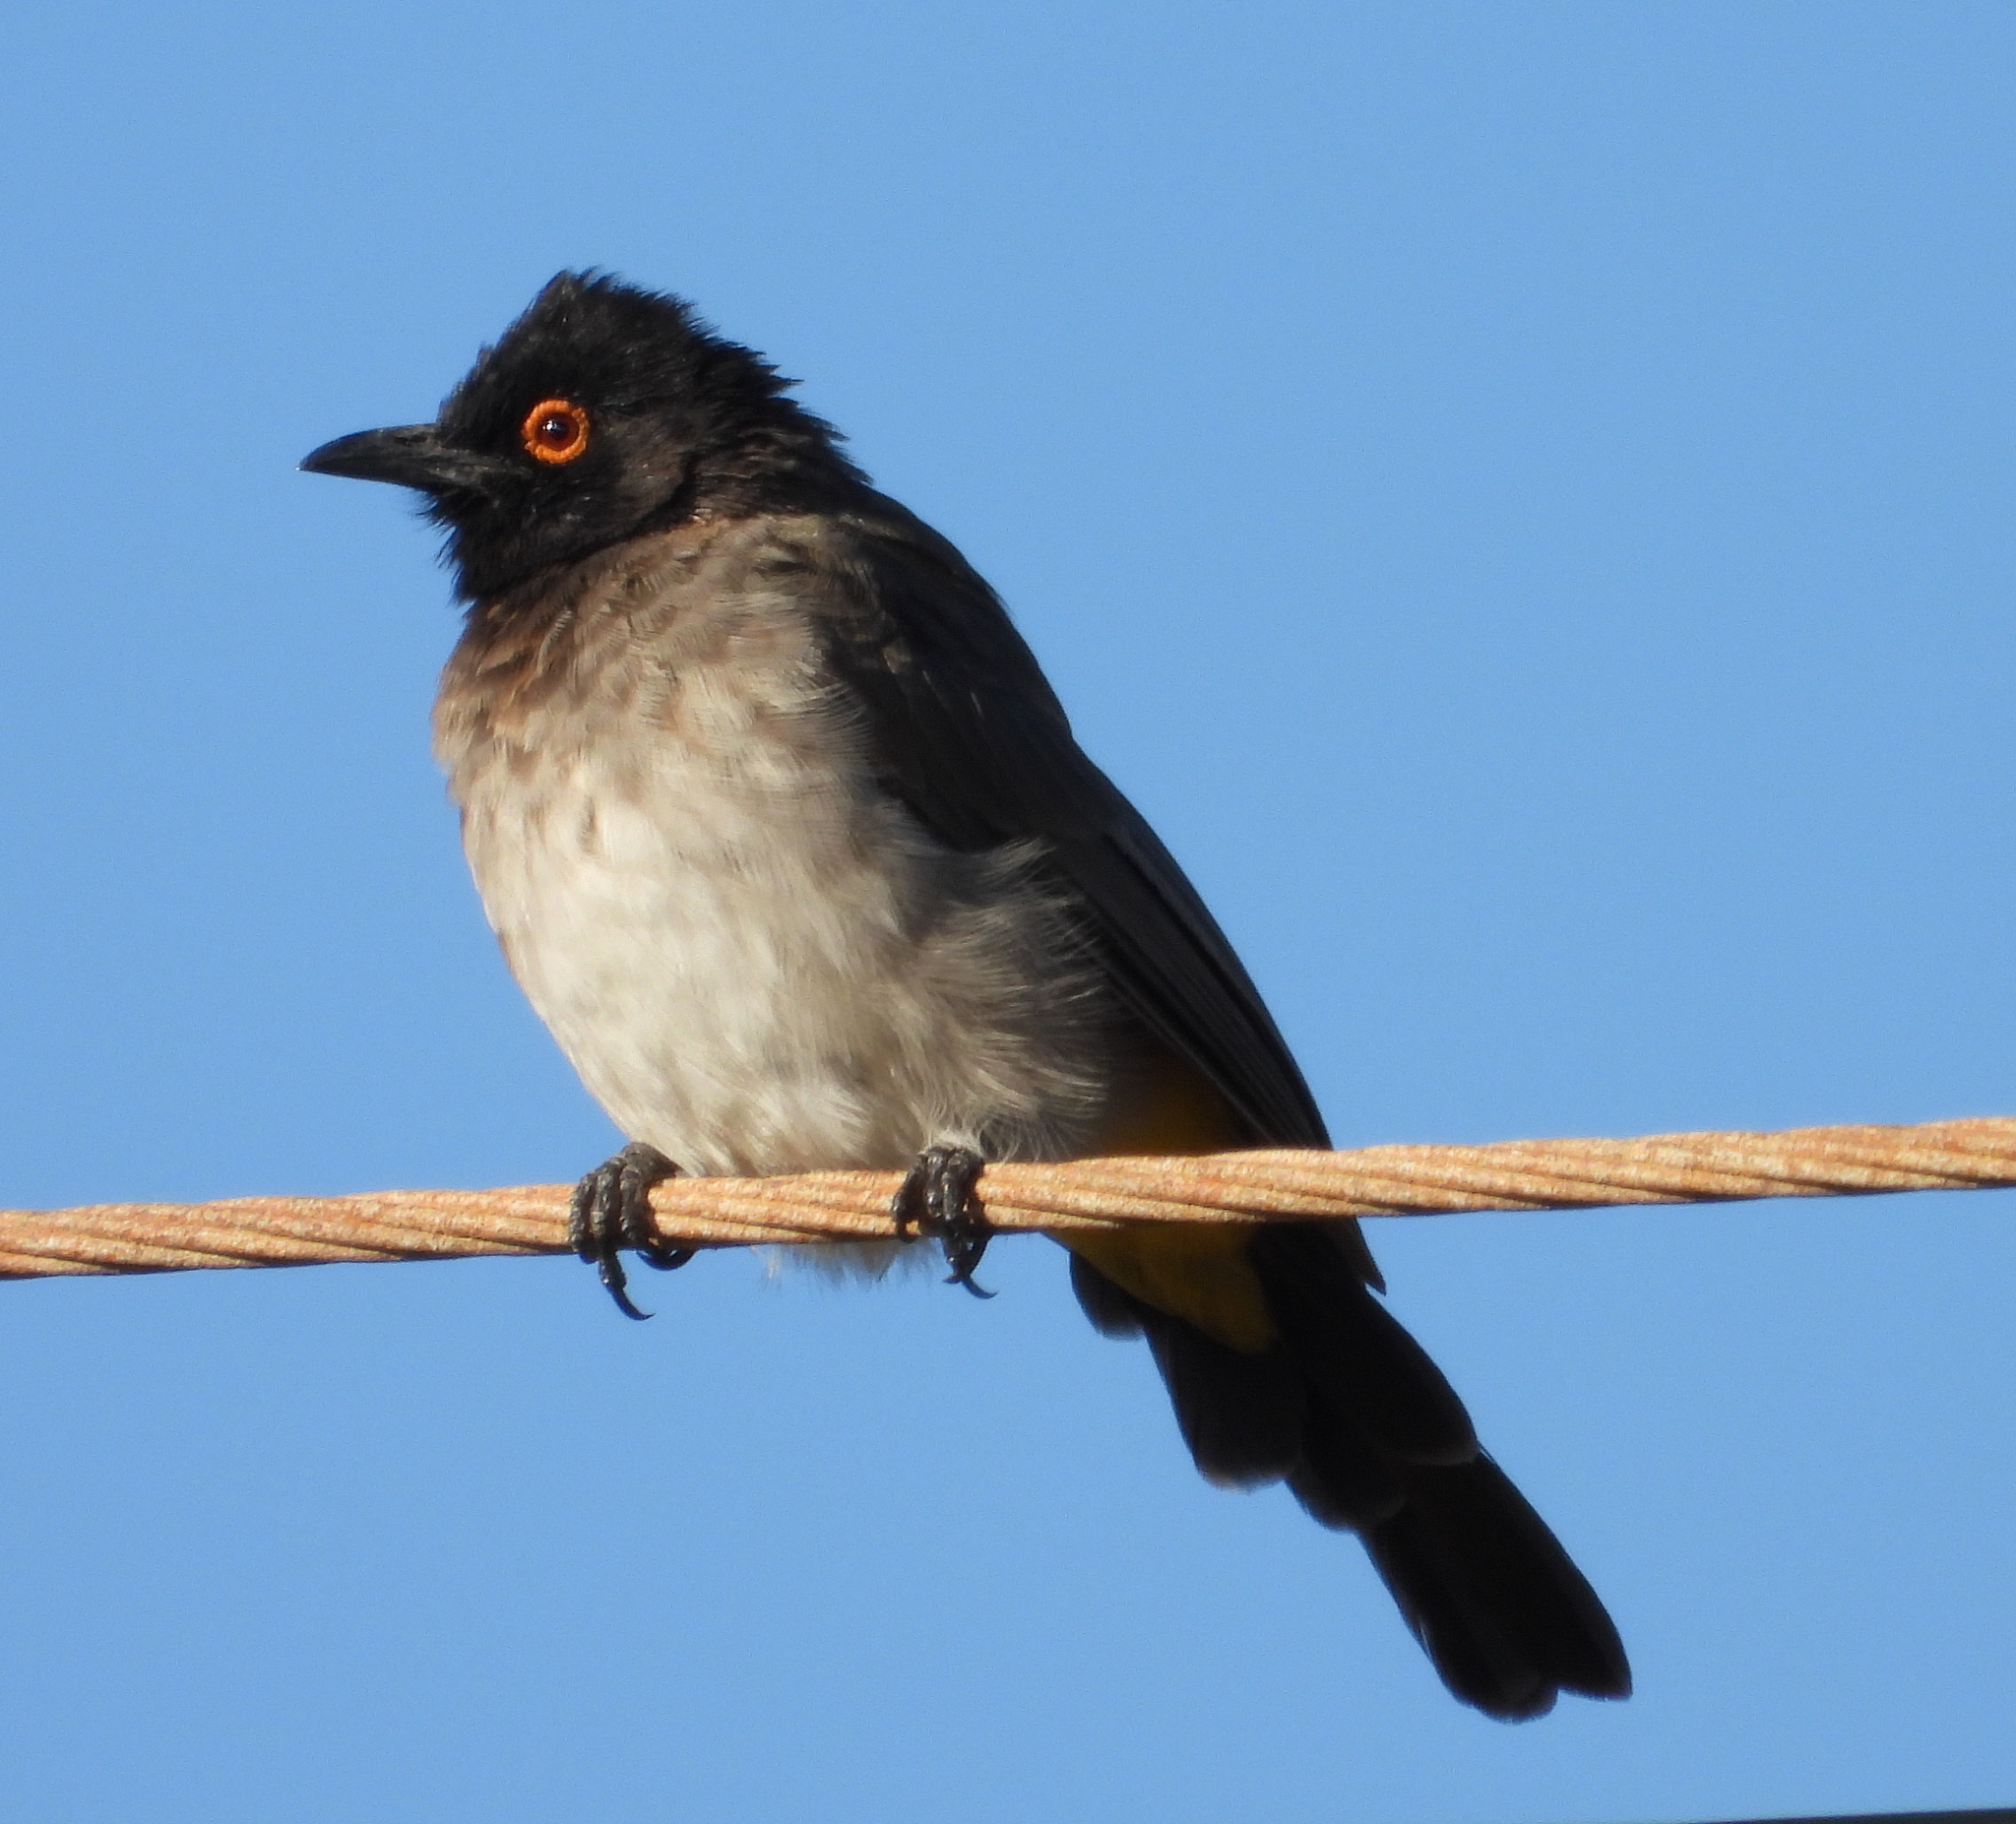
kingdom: Animalia
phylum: Chordata
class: Aves
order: Passeriformes
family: Pycnonotidae
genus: Pycnonotus
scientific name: Pycnonotus nigricans
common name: African red-eyed bulbul
